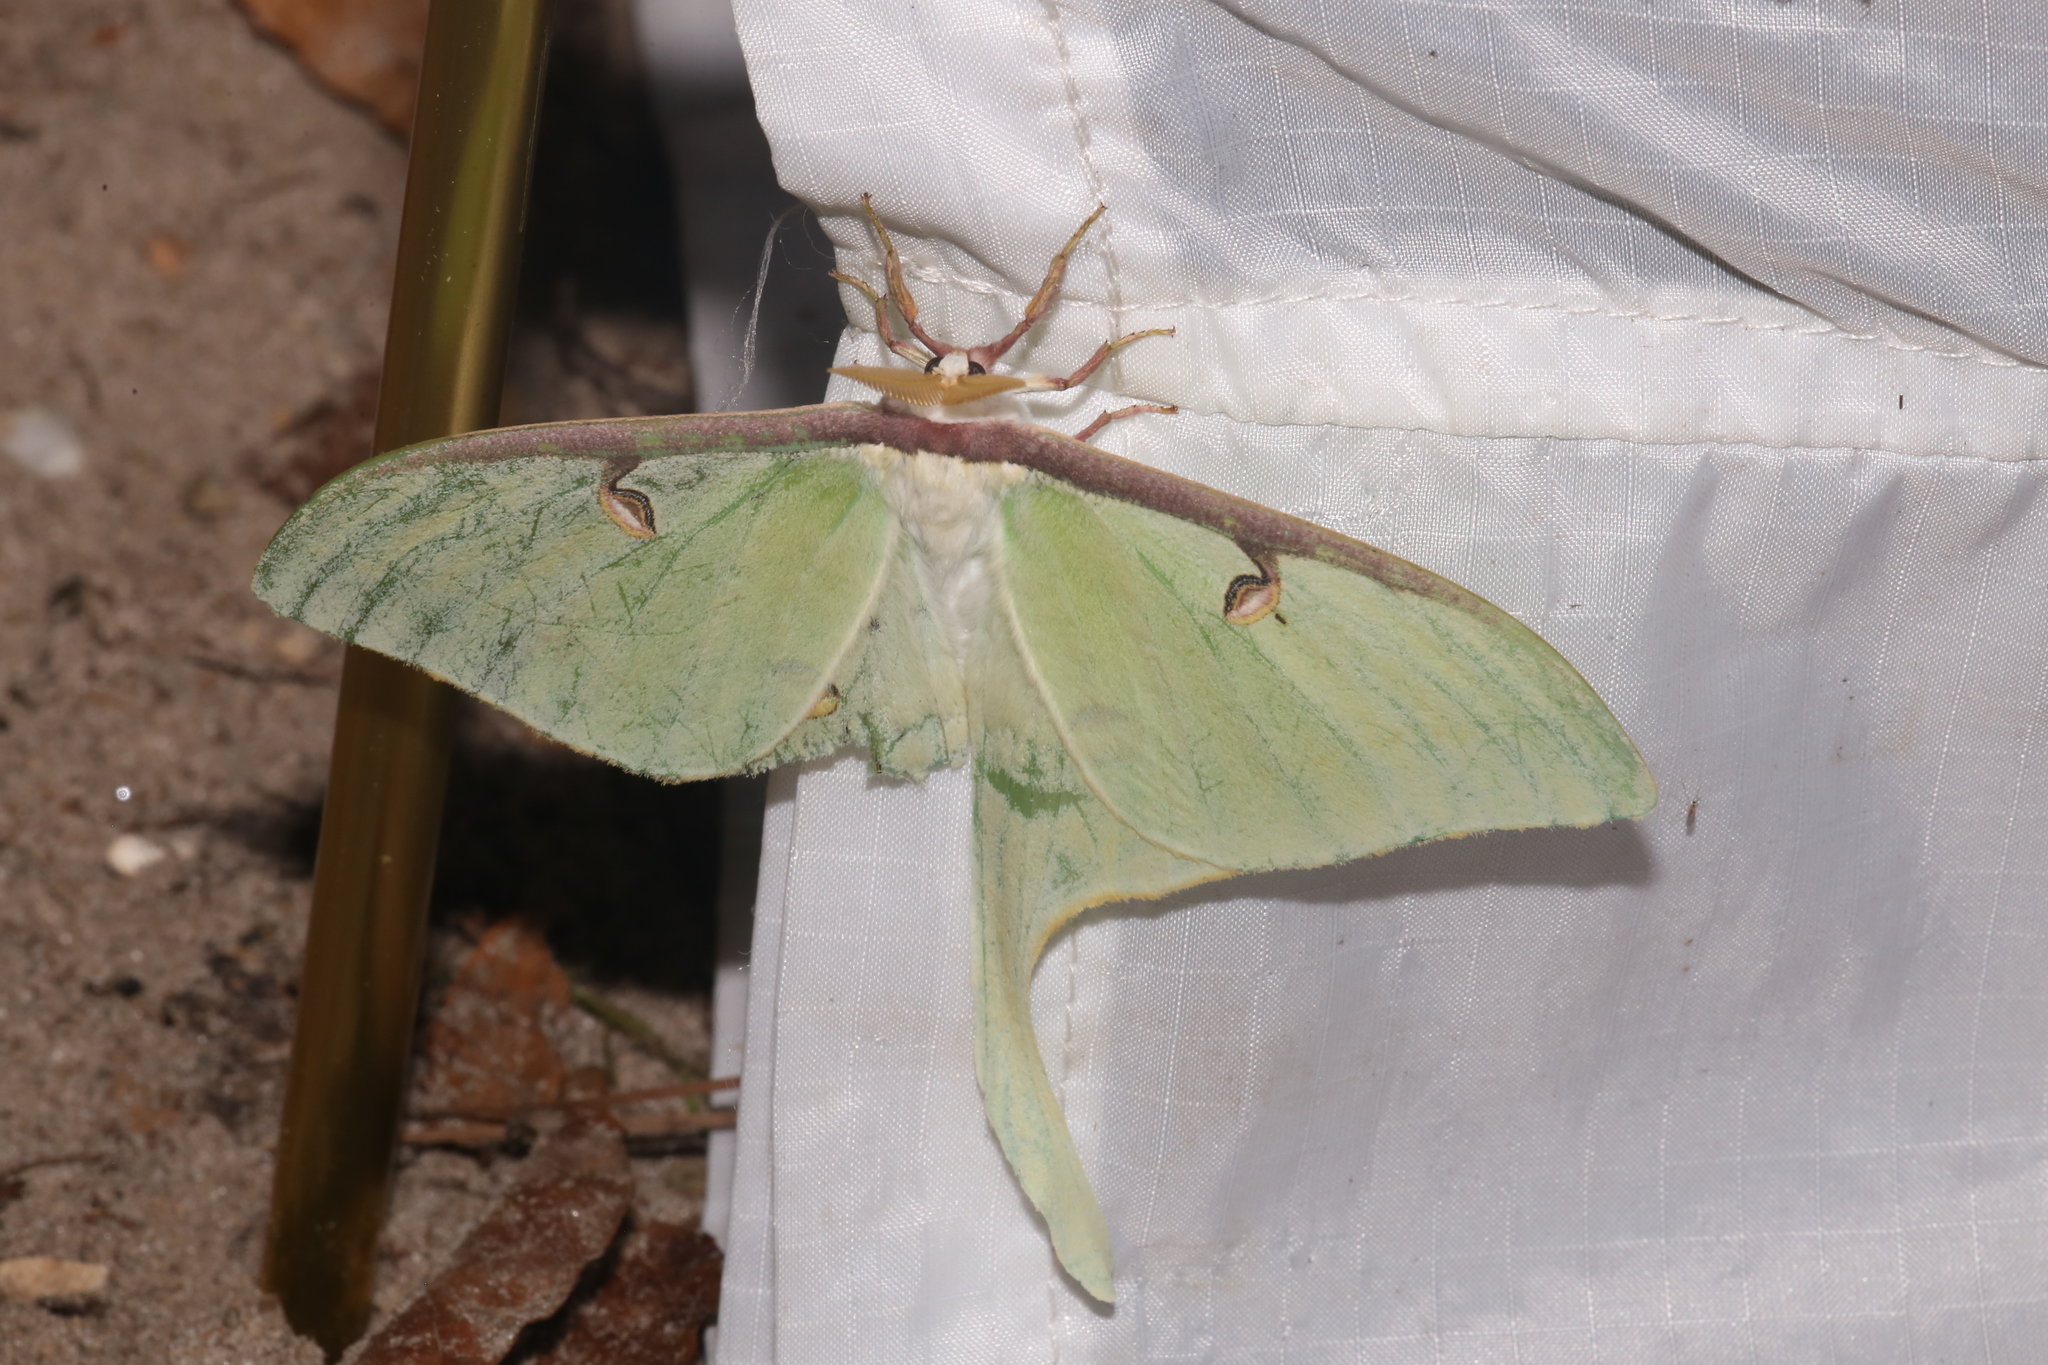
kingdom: Animalia
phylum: Arthropoda
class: Insecta
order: Lepidoptera
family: Saturniidae
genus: Actias
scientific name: Actias luna
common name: Luna moth
